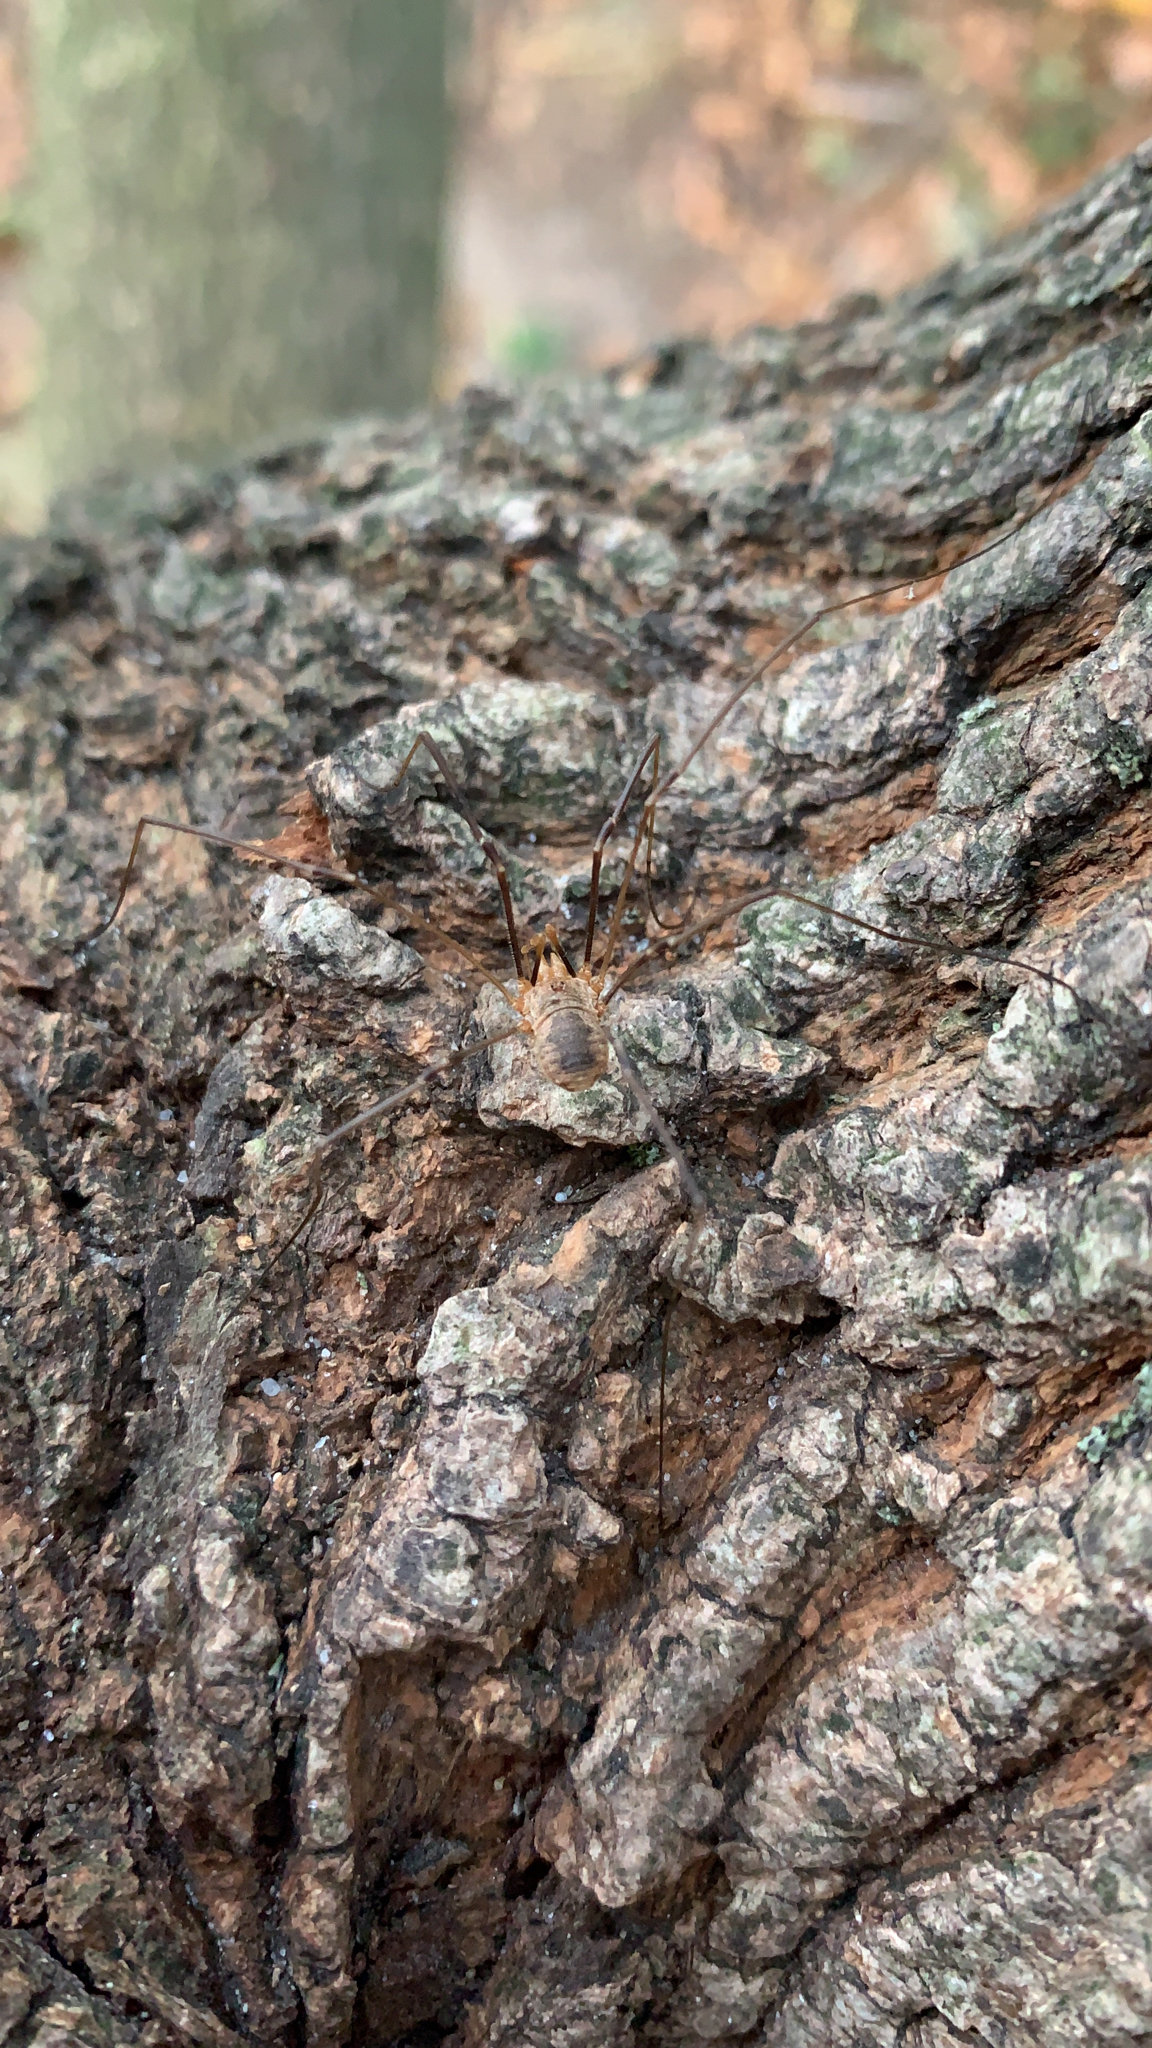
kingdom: Animalia
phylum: Arthropoda
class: Arachnida
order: Opiliones
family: Phalangiidae
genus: Phalangium
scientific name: Phalangium opilio
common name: Daddy longleg
